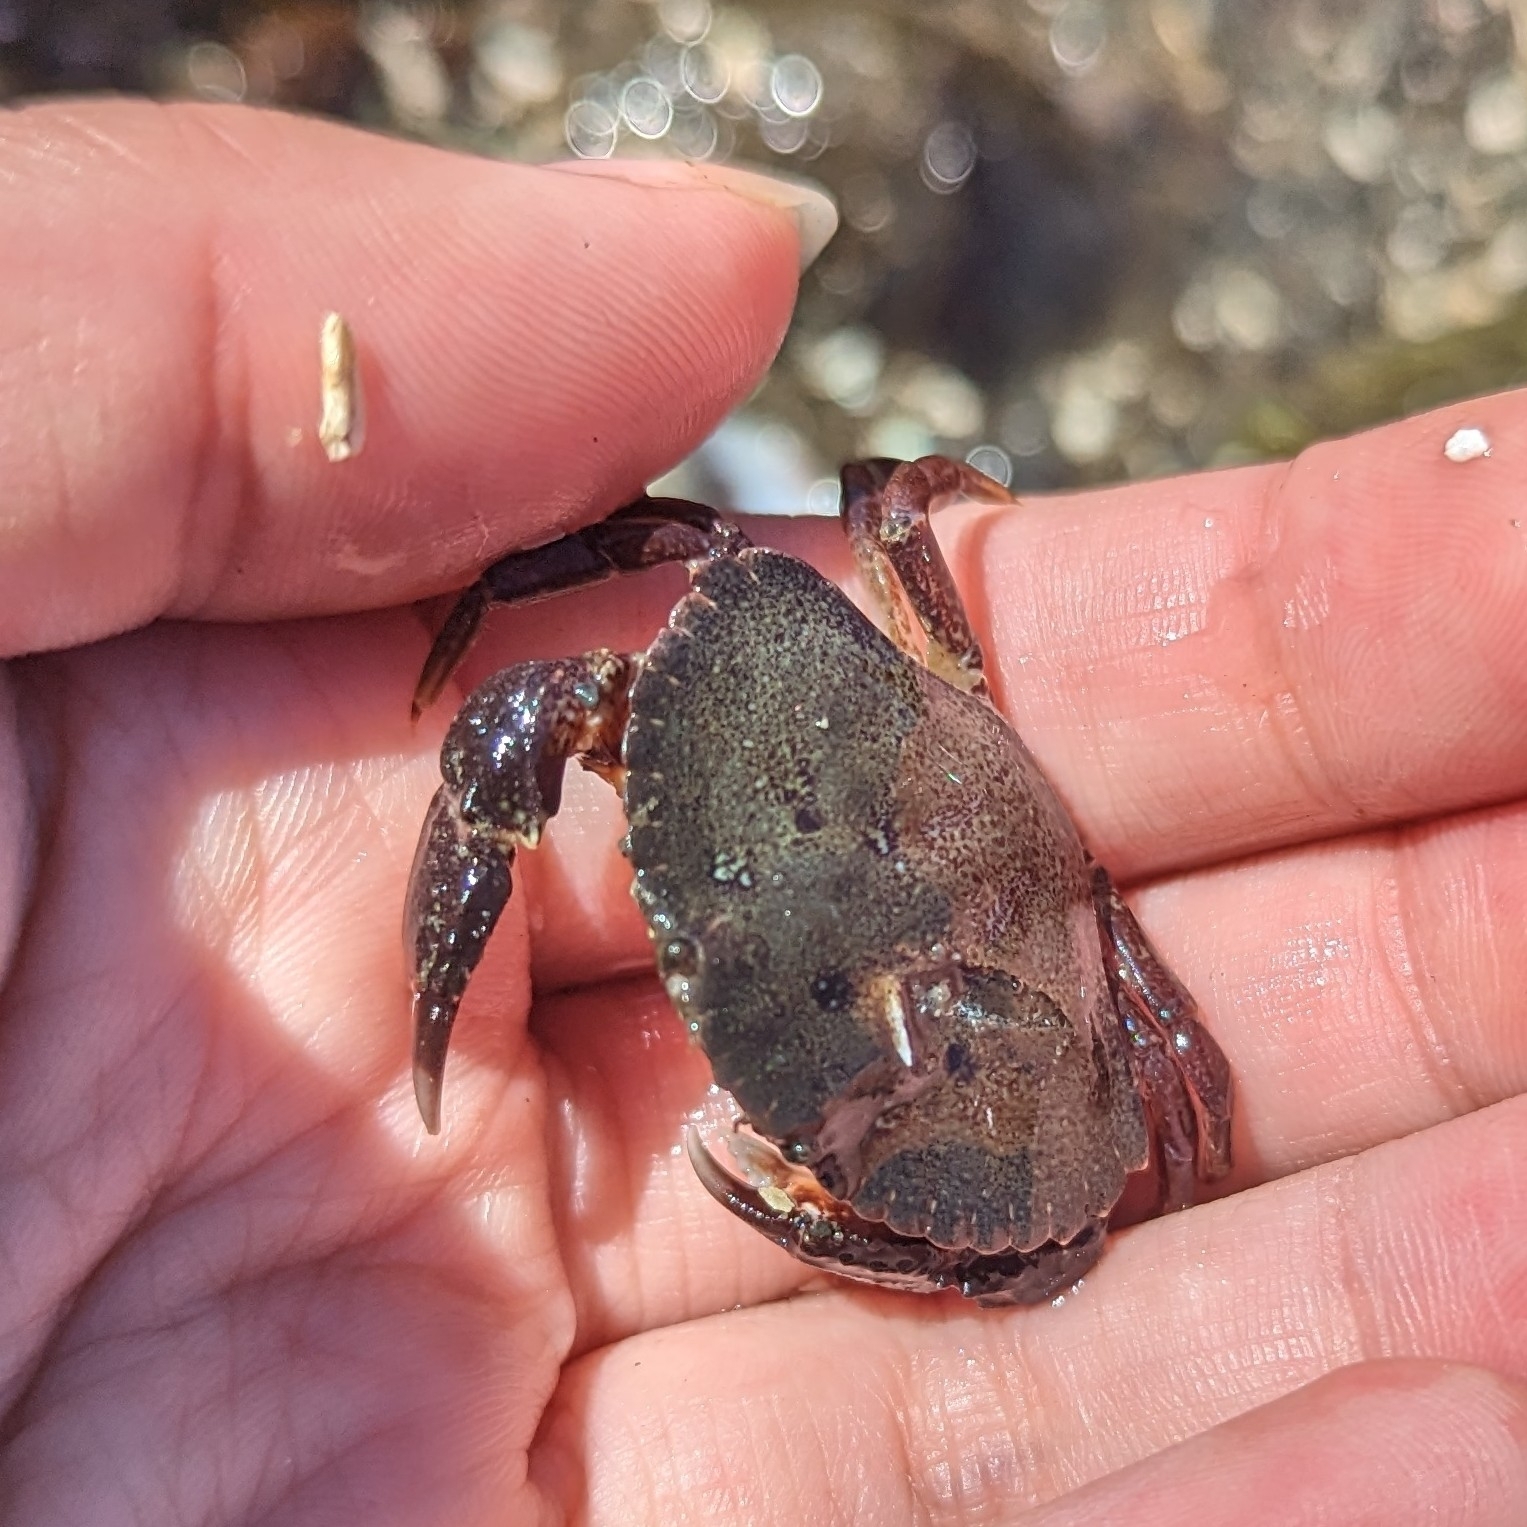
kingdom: Animalia
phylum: Arthropoda
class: Malacostraca
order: Decapoda
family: Cancridae
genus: Cancer
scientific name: Cancer productus
